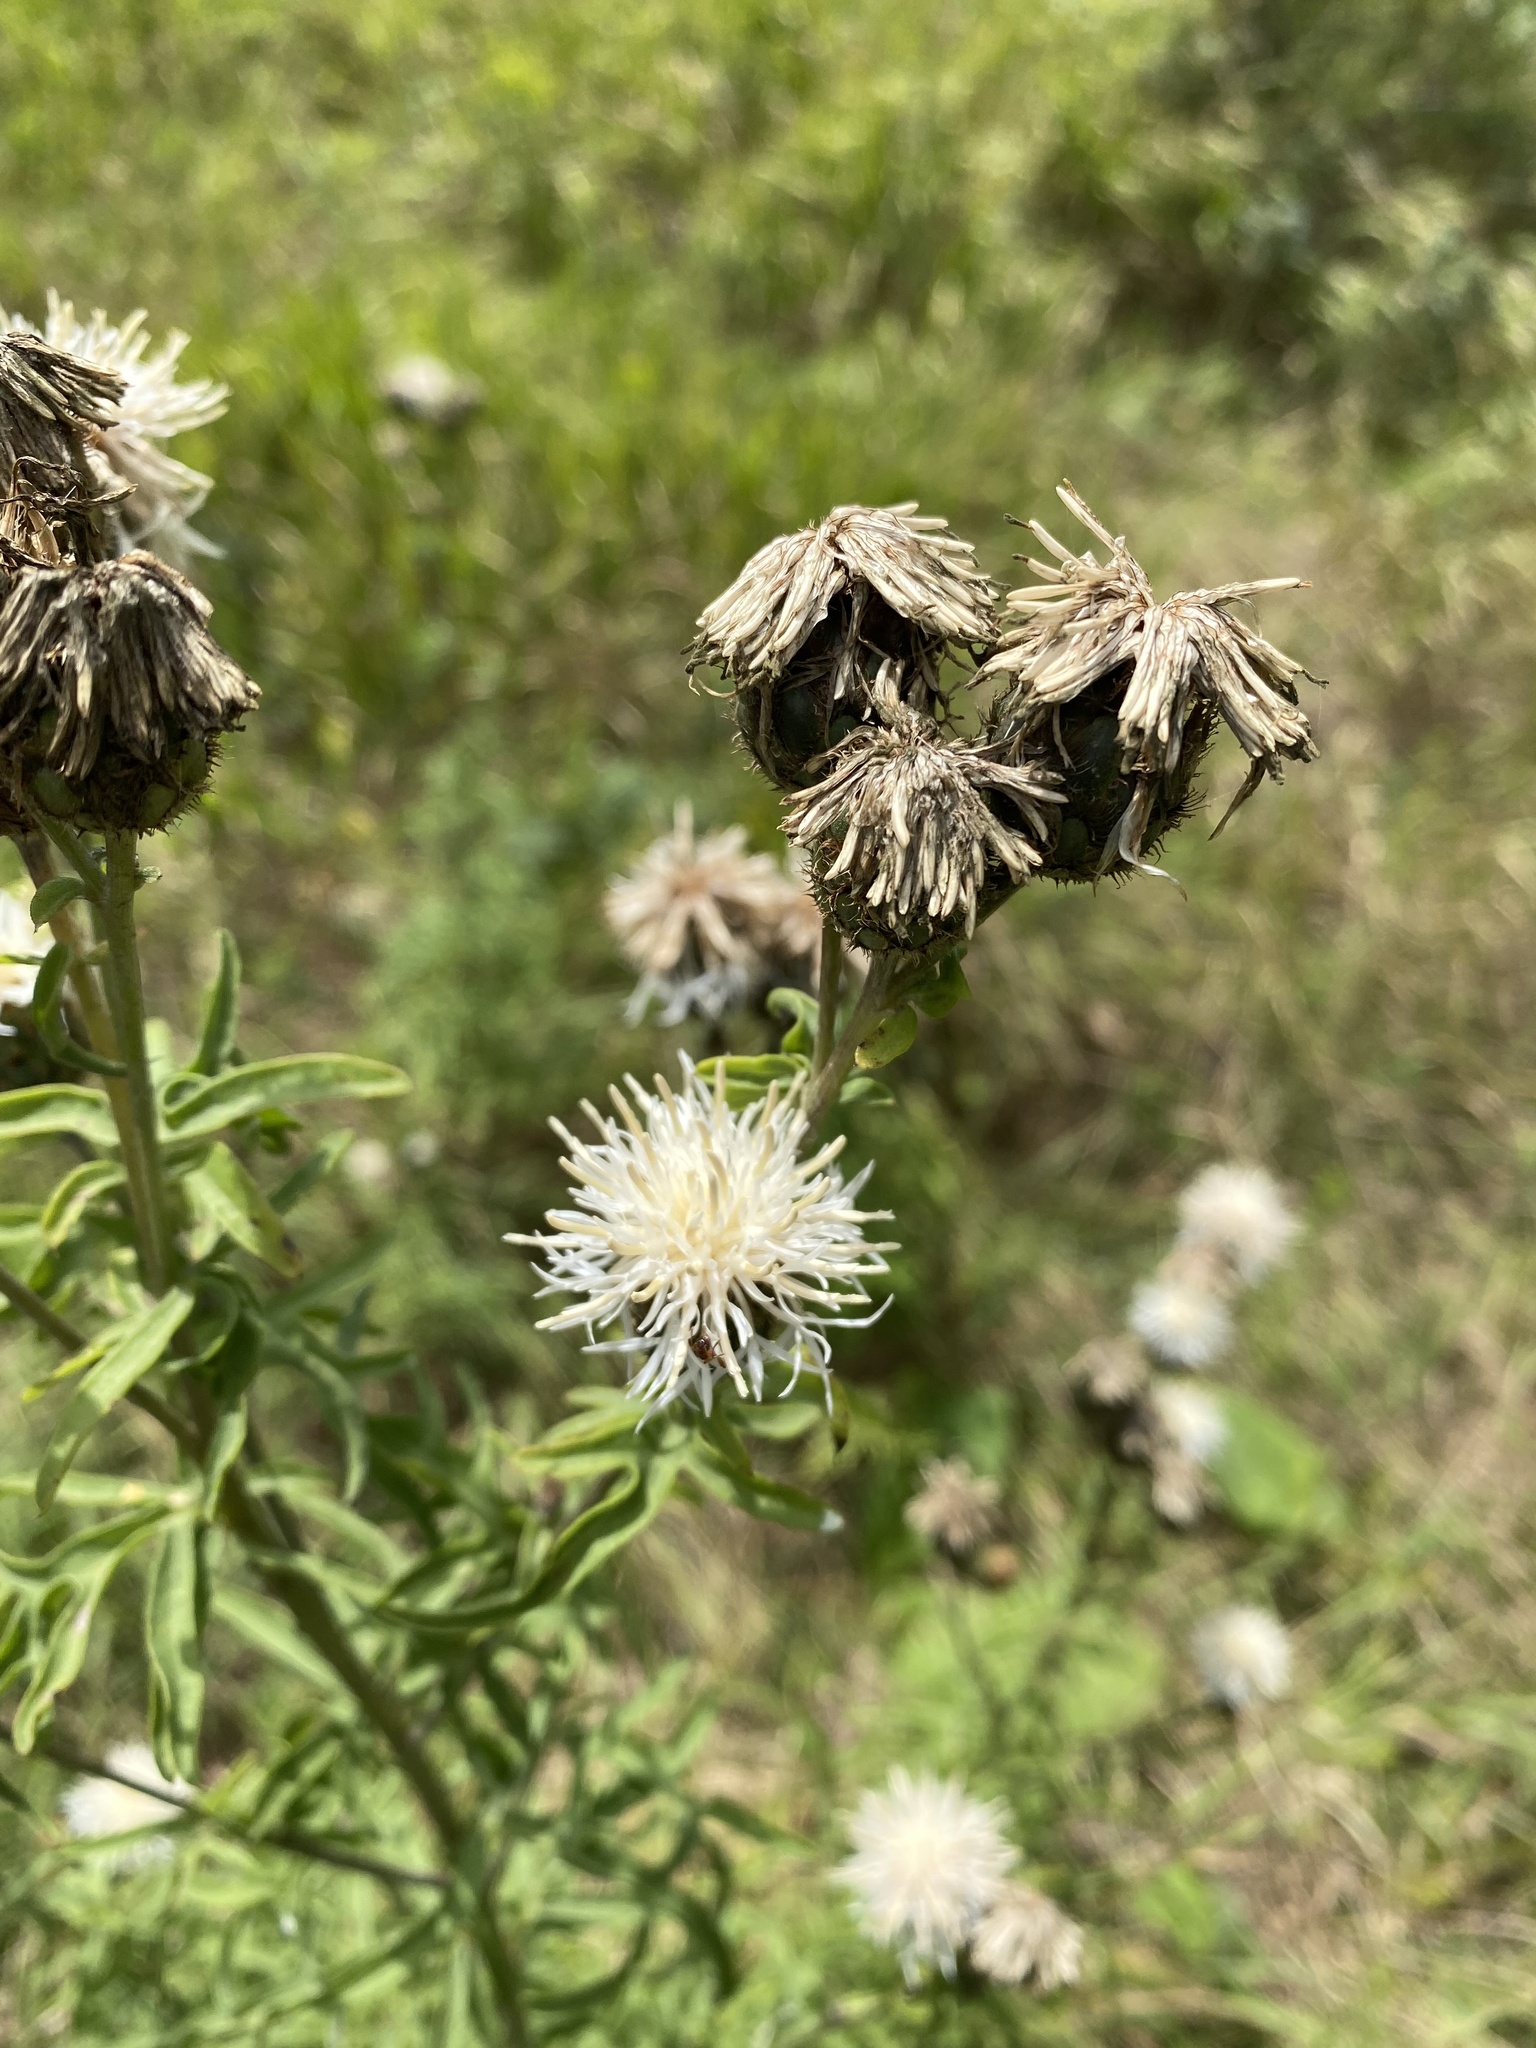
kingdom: Plantae
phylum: Tracheophyta
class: Magnoliopsida
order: Asterales
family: Asteraceae
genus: Centaurea
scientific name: Centaurea scabiosa
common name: Greater knapweed
